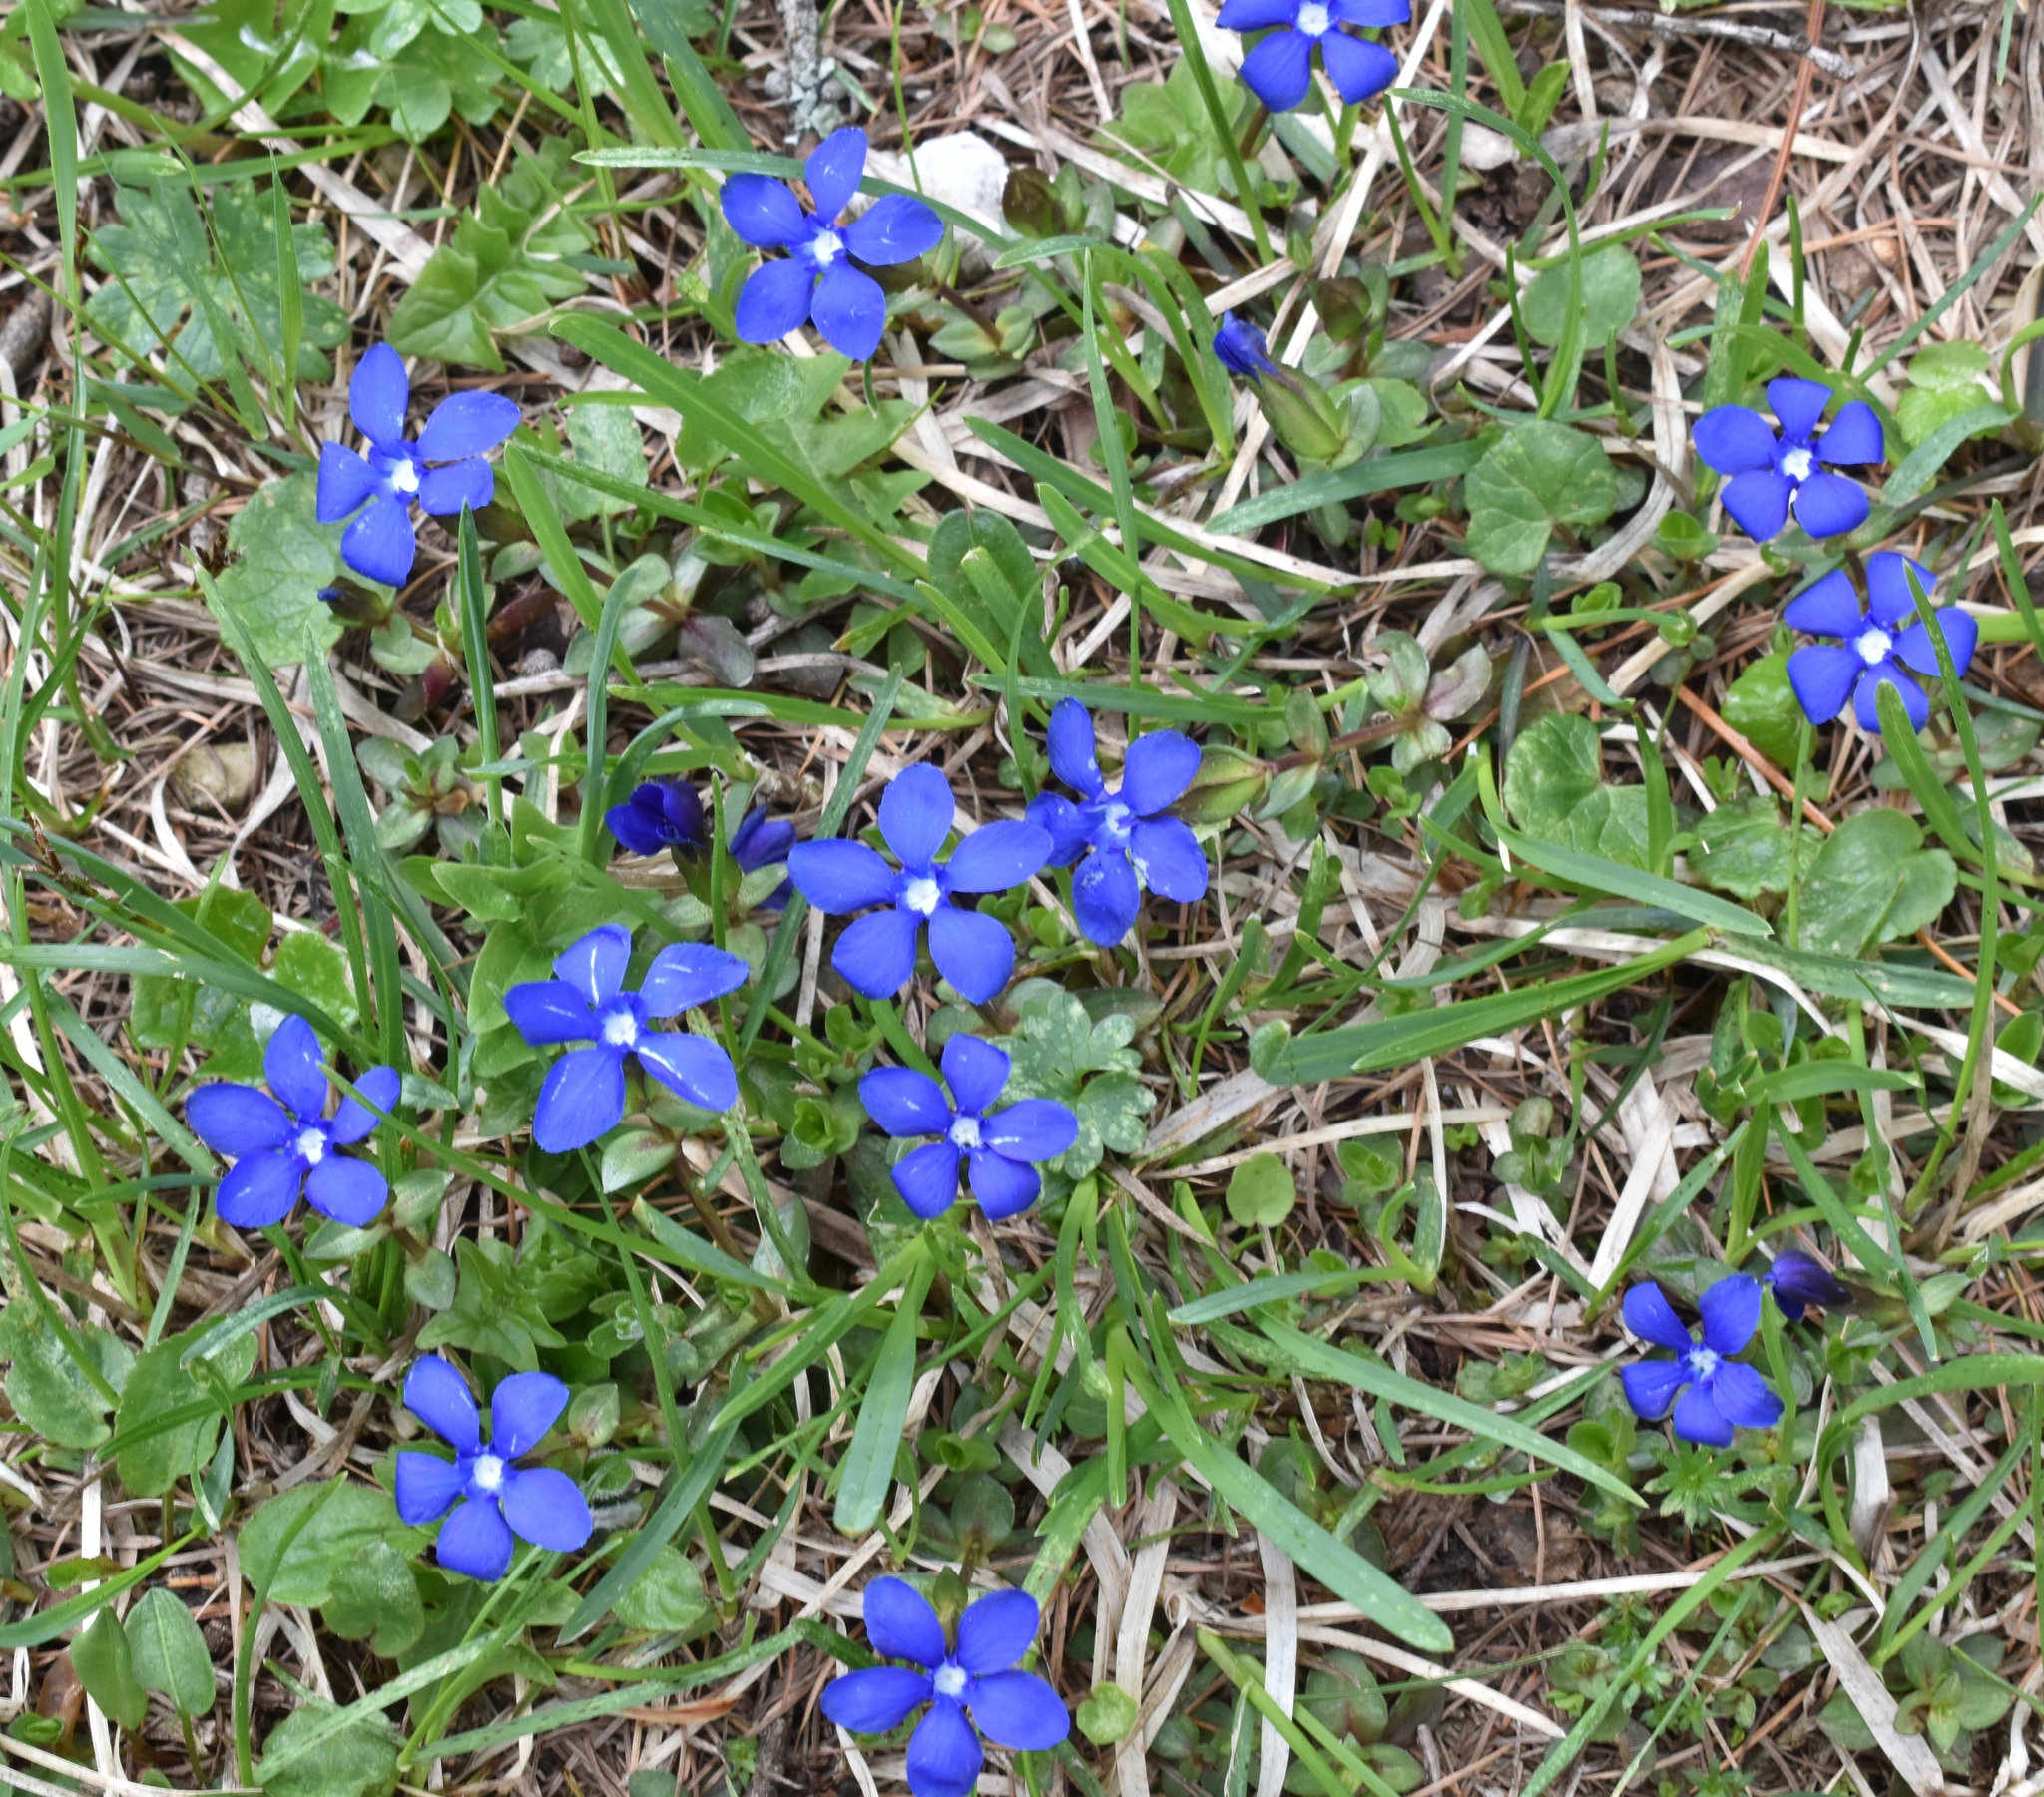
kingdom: Plantae
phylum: Tracheophyta
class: Magnoliopsida
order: Gentianales
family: Gentianaceae
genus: Gentiana
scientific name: Gentiana verna
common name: Spring gentian
